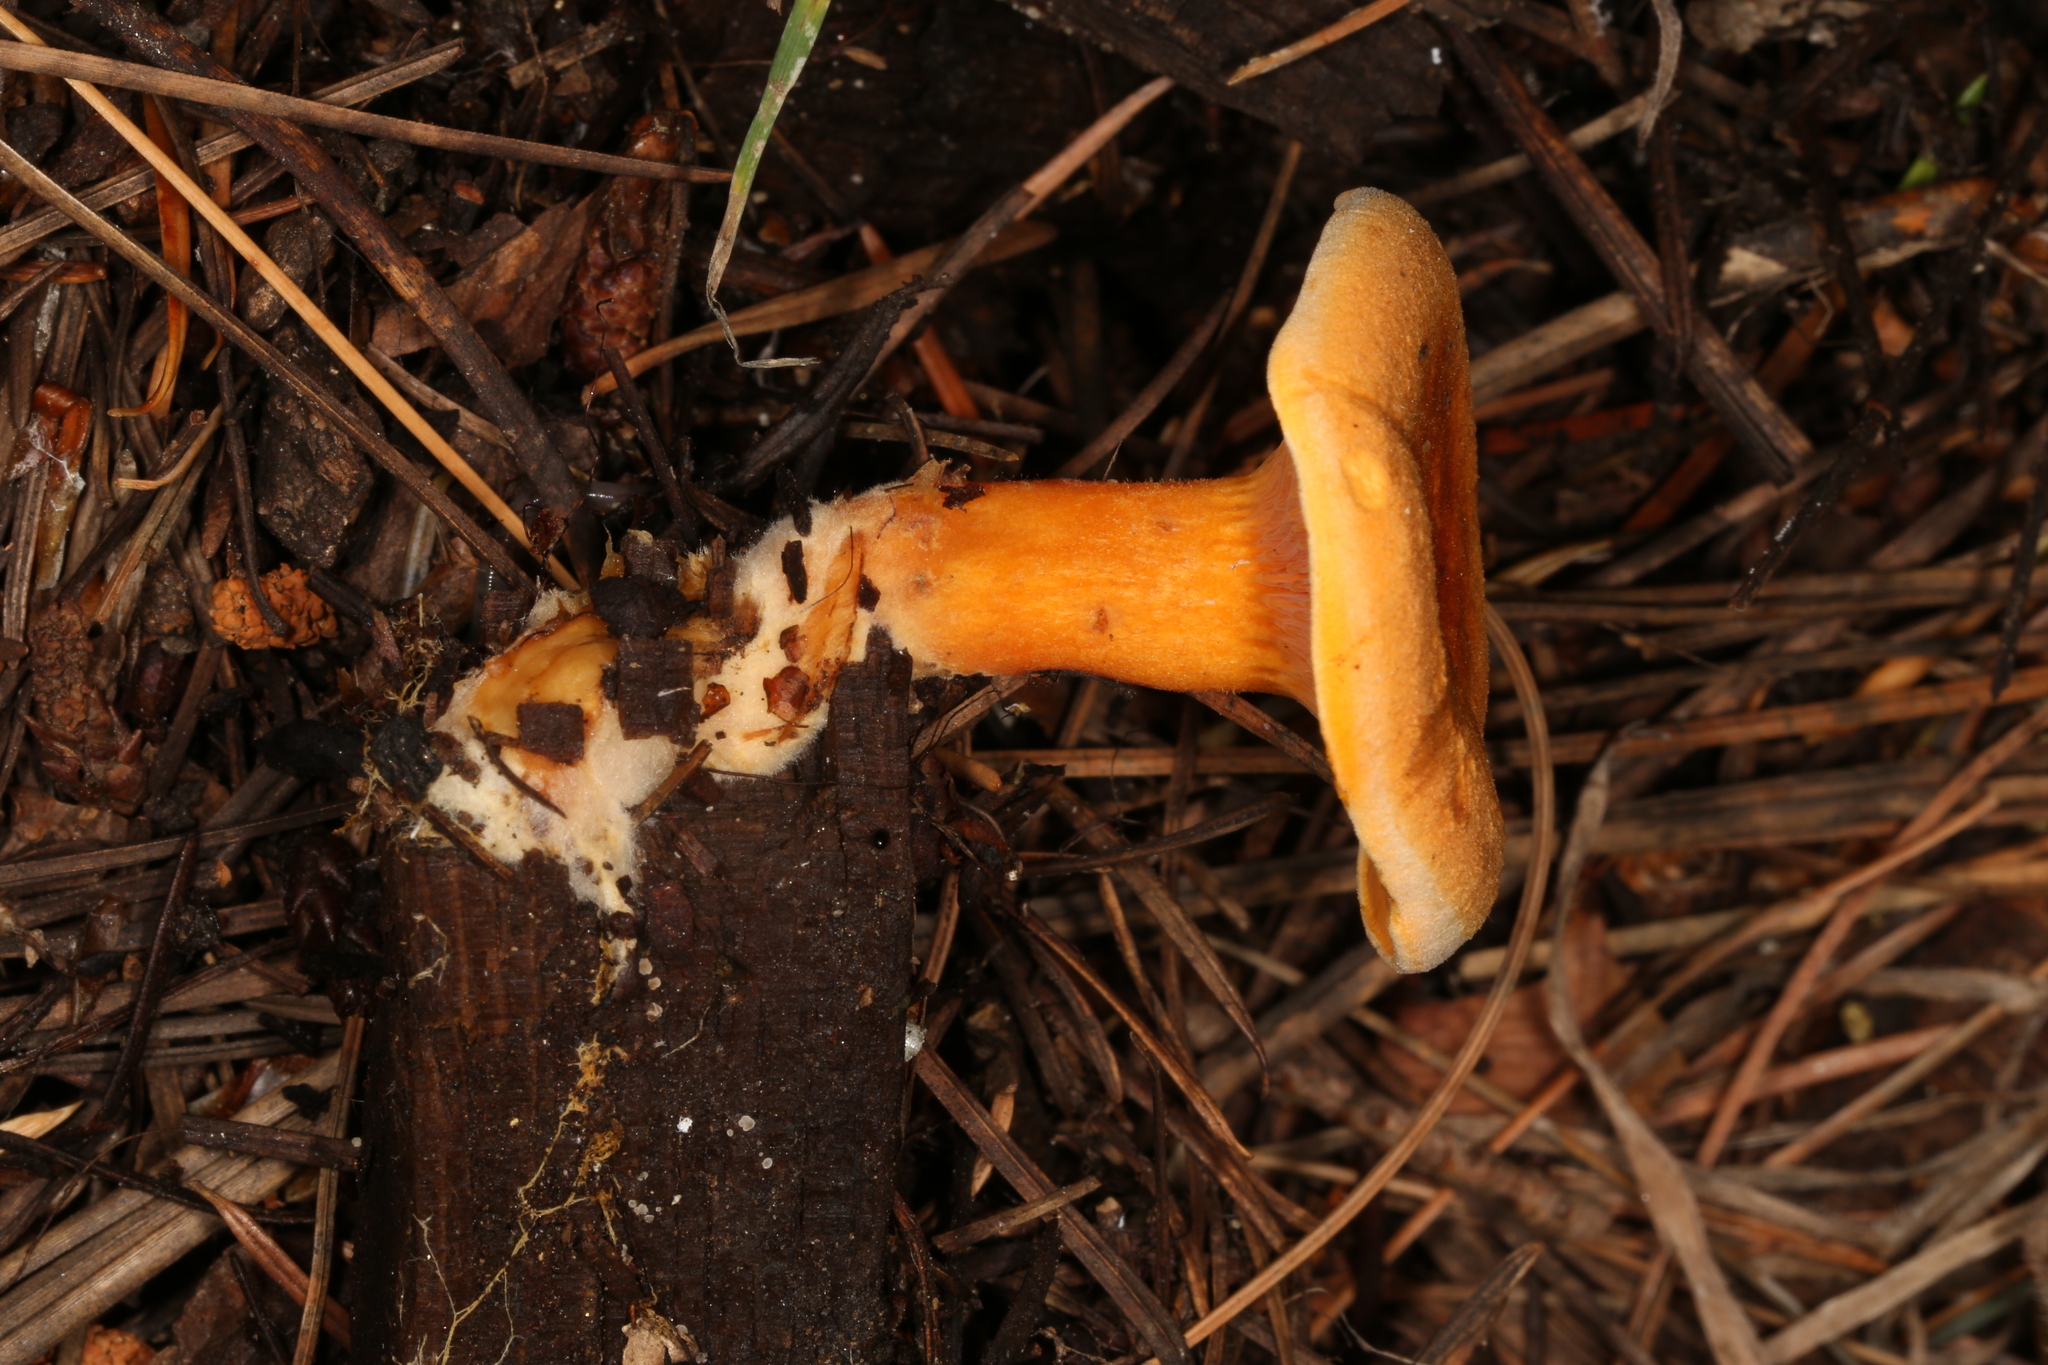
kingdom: Fungi
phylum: Basidiomycota
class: Agaricomycetes
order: Boletales
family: Hygrophoropsidaceae
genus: Hygrophoropsis
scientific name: Hygrophoropsis aurantiaca
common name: False chanterelle
